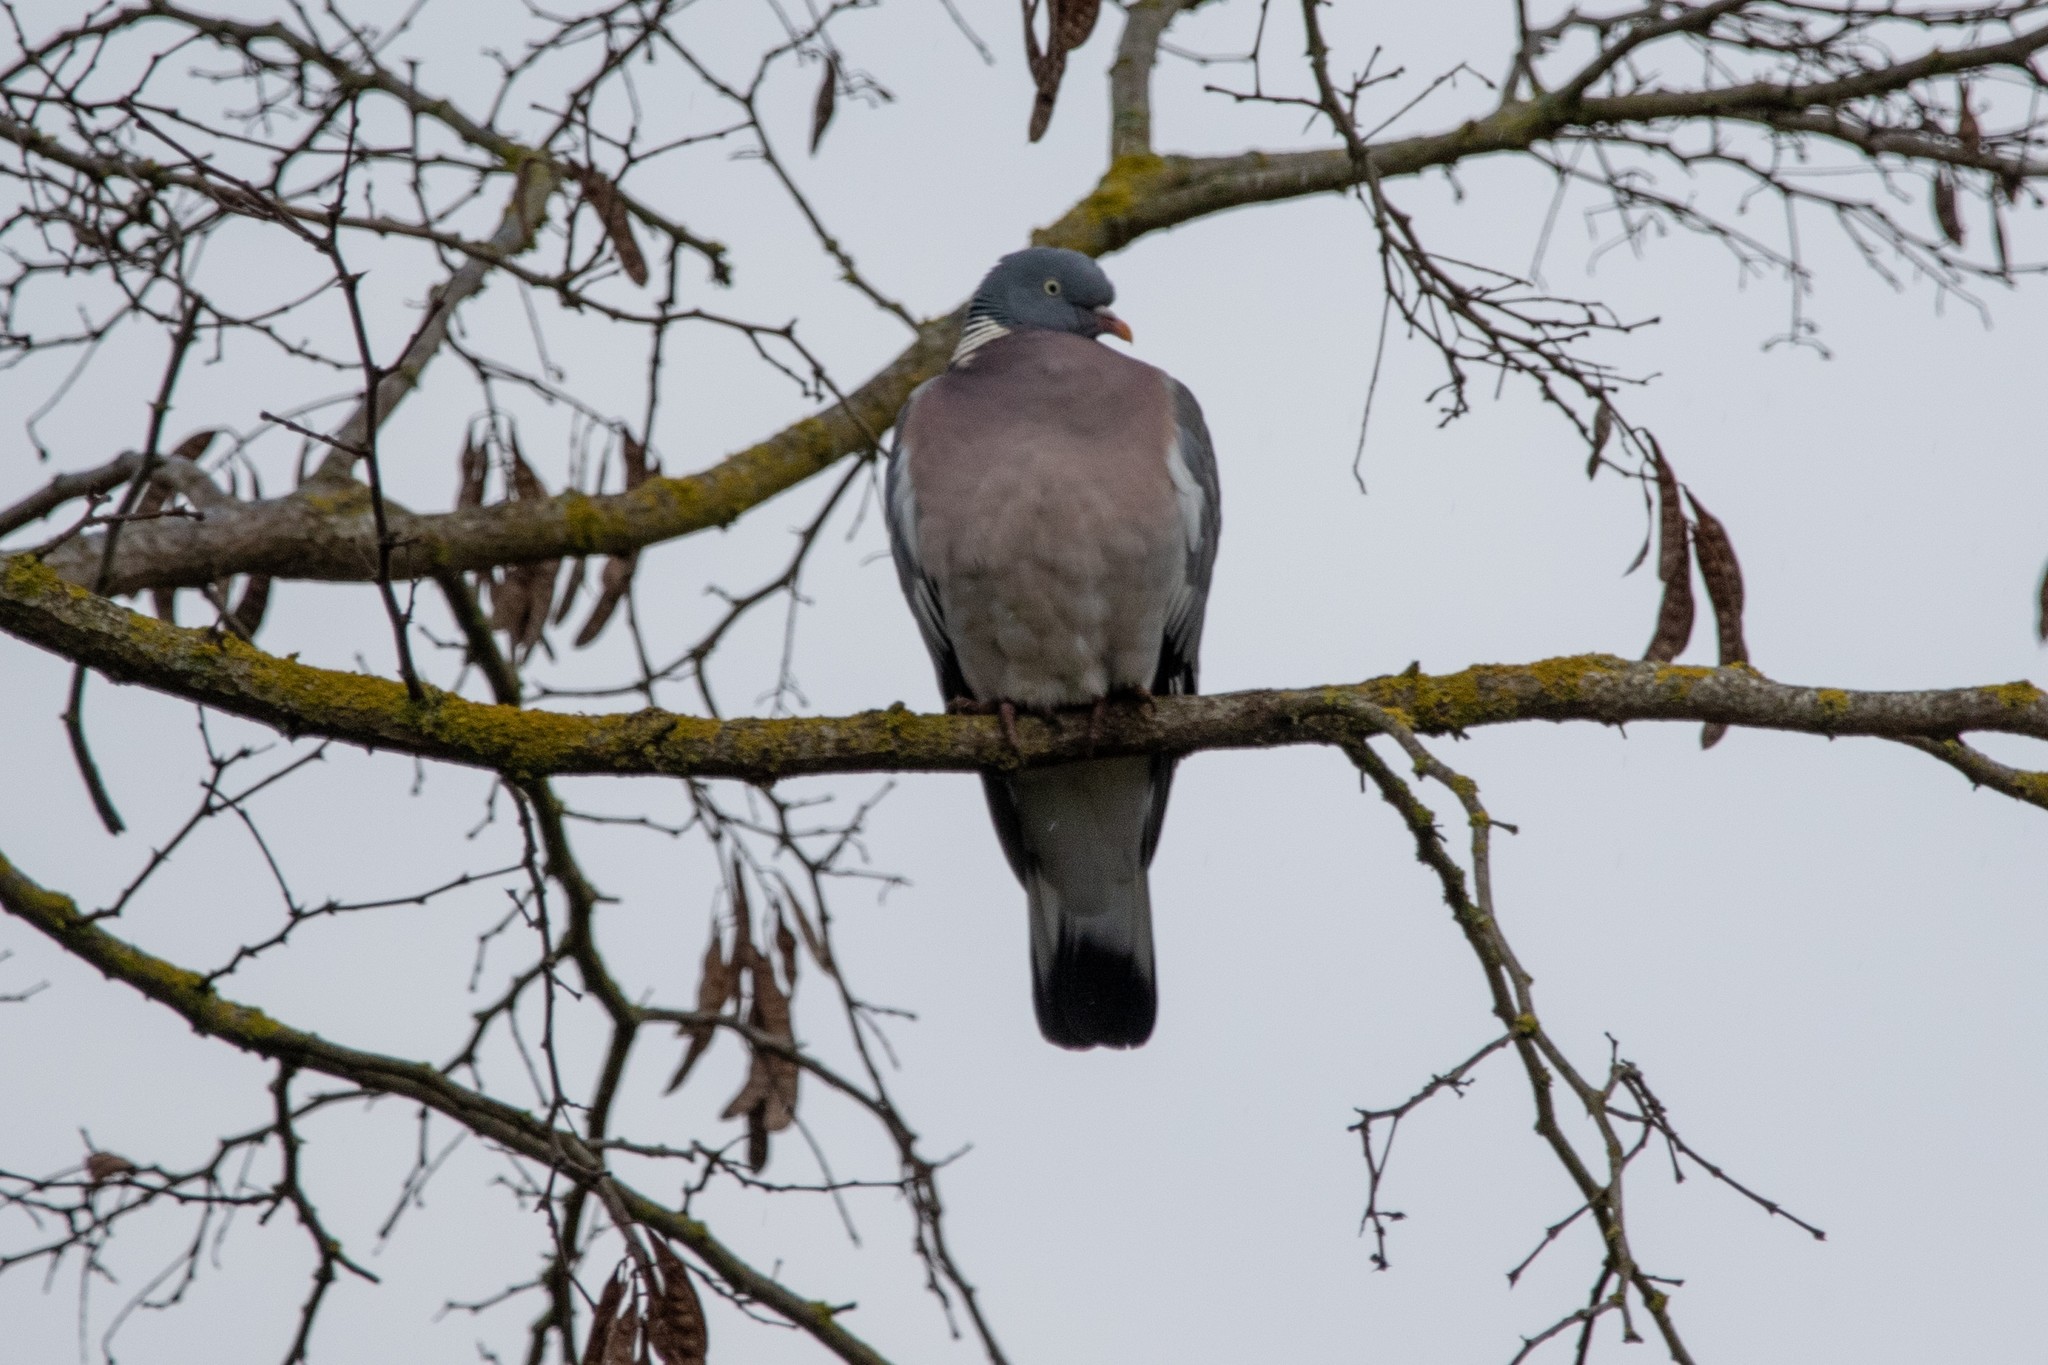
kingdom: Animalia
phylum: Chordata
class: Aves
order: Columbiformes
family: Columbidae
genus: Columba
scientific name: Columba palumbus
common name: Common wood pigeon
